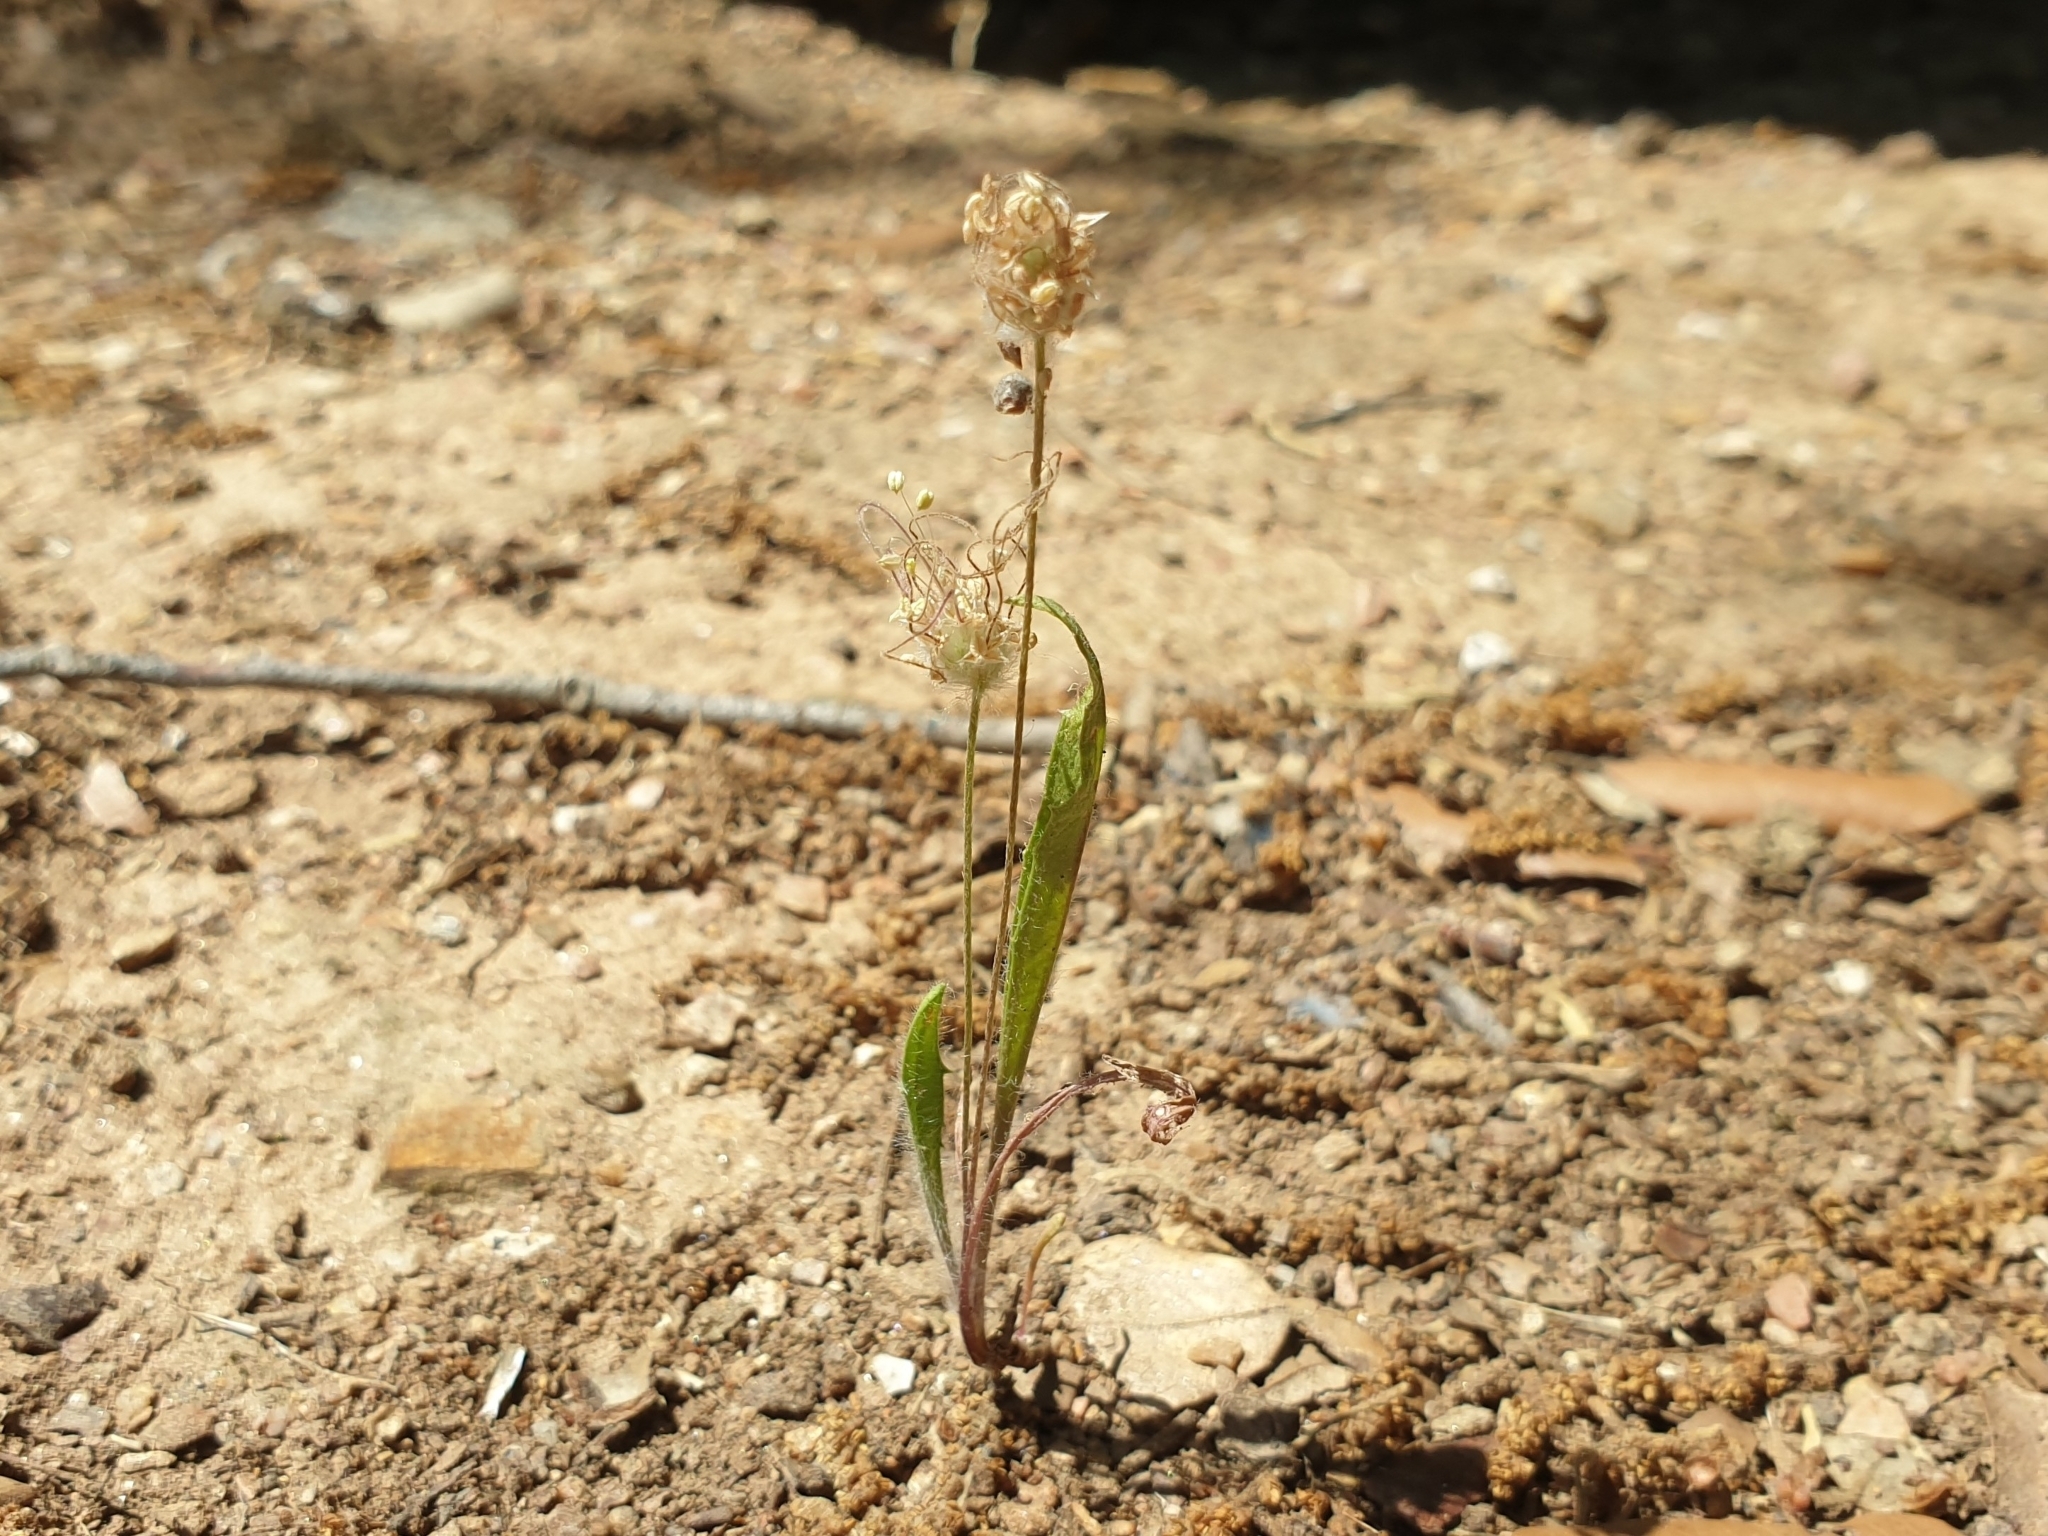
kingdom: Plantae
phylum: Tracheophyta
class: Magnoliopsida
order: Lamiales
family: Plantaginaceae
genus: Plantago
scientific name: Plantago lagopus
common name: Hare-foot plantain
